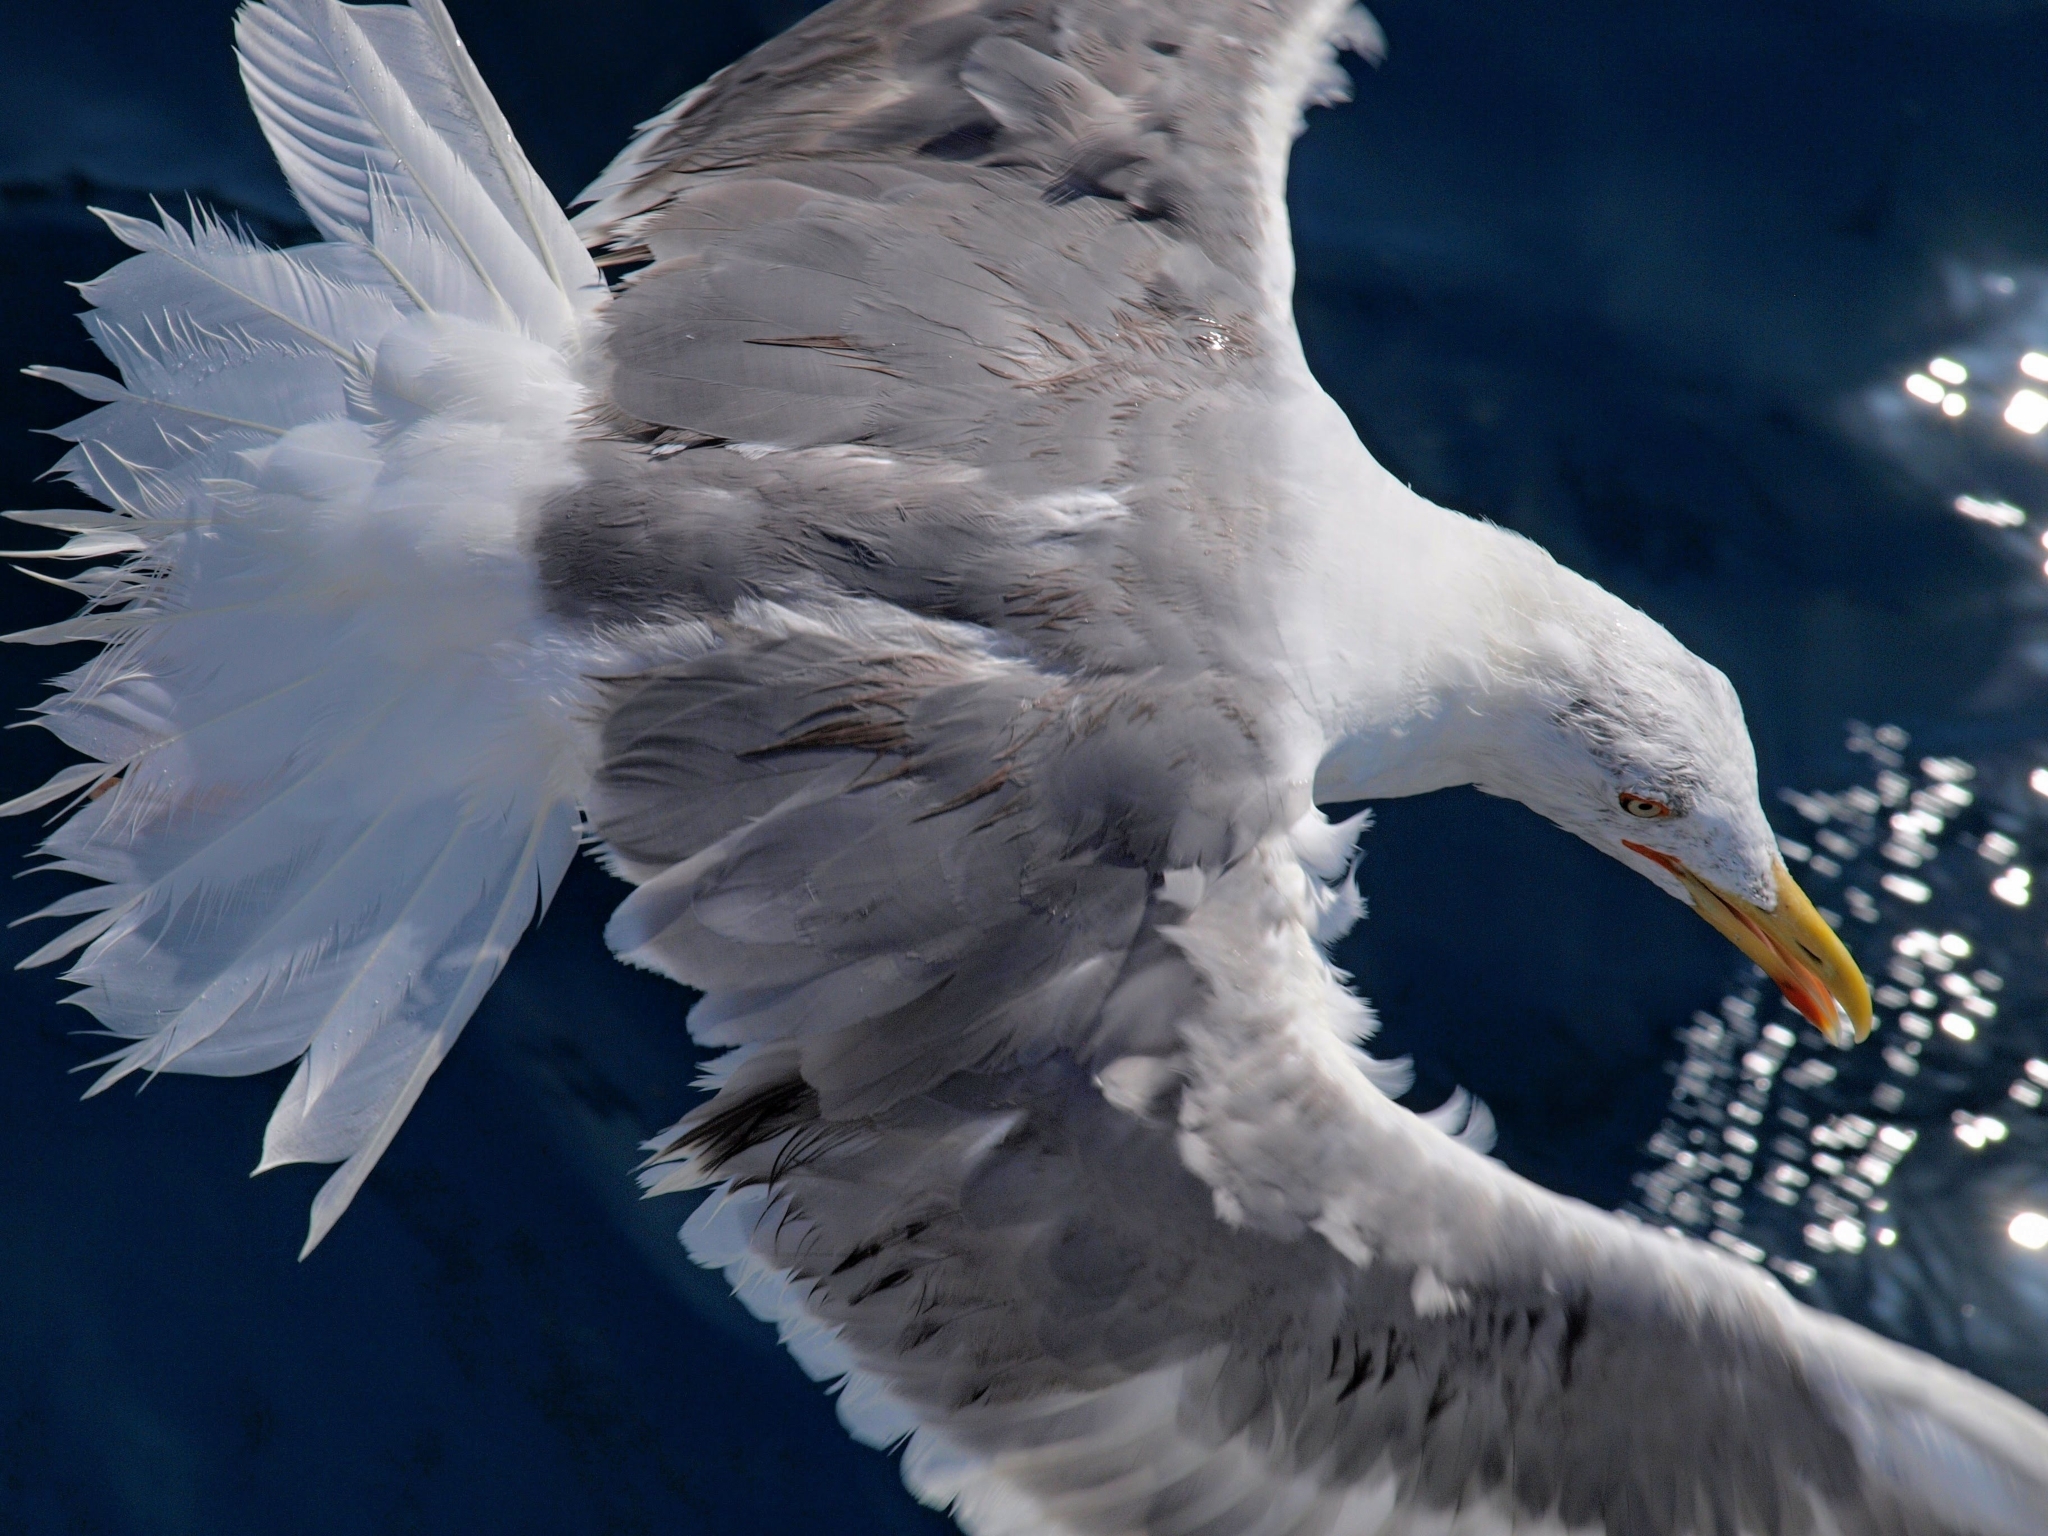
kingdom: Animalia
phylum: Chordata
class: Aves
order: Charadriiformes
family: Laridae
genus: Larus
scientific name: Larus michahellis
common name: Yellow-legged gull
